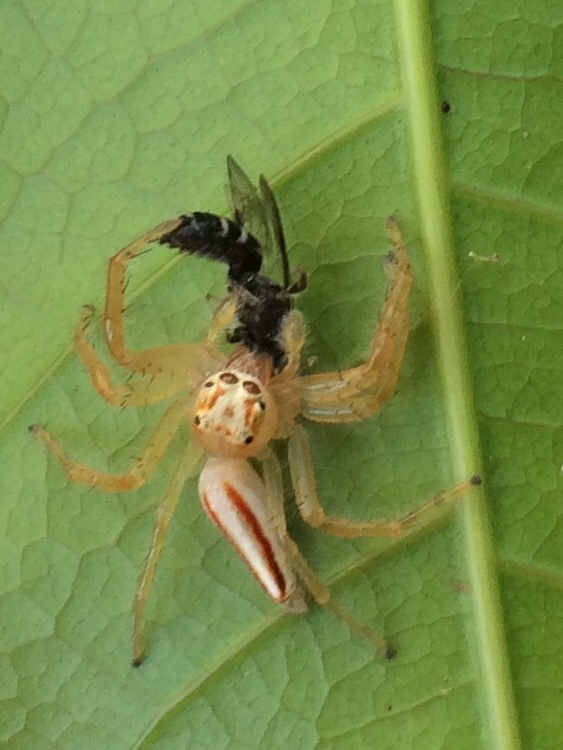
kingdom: Animalia
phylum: Arthropoda
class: Arachnida
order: Araneae
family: Salticidae
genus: Telamonia
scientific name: Telamonia dimidiata
